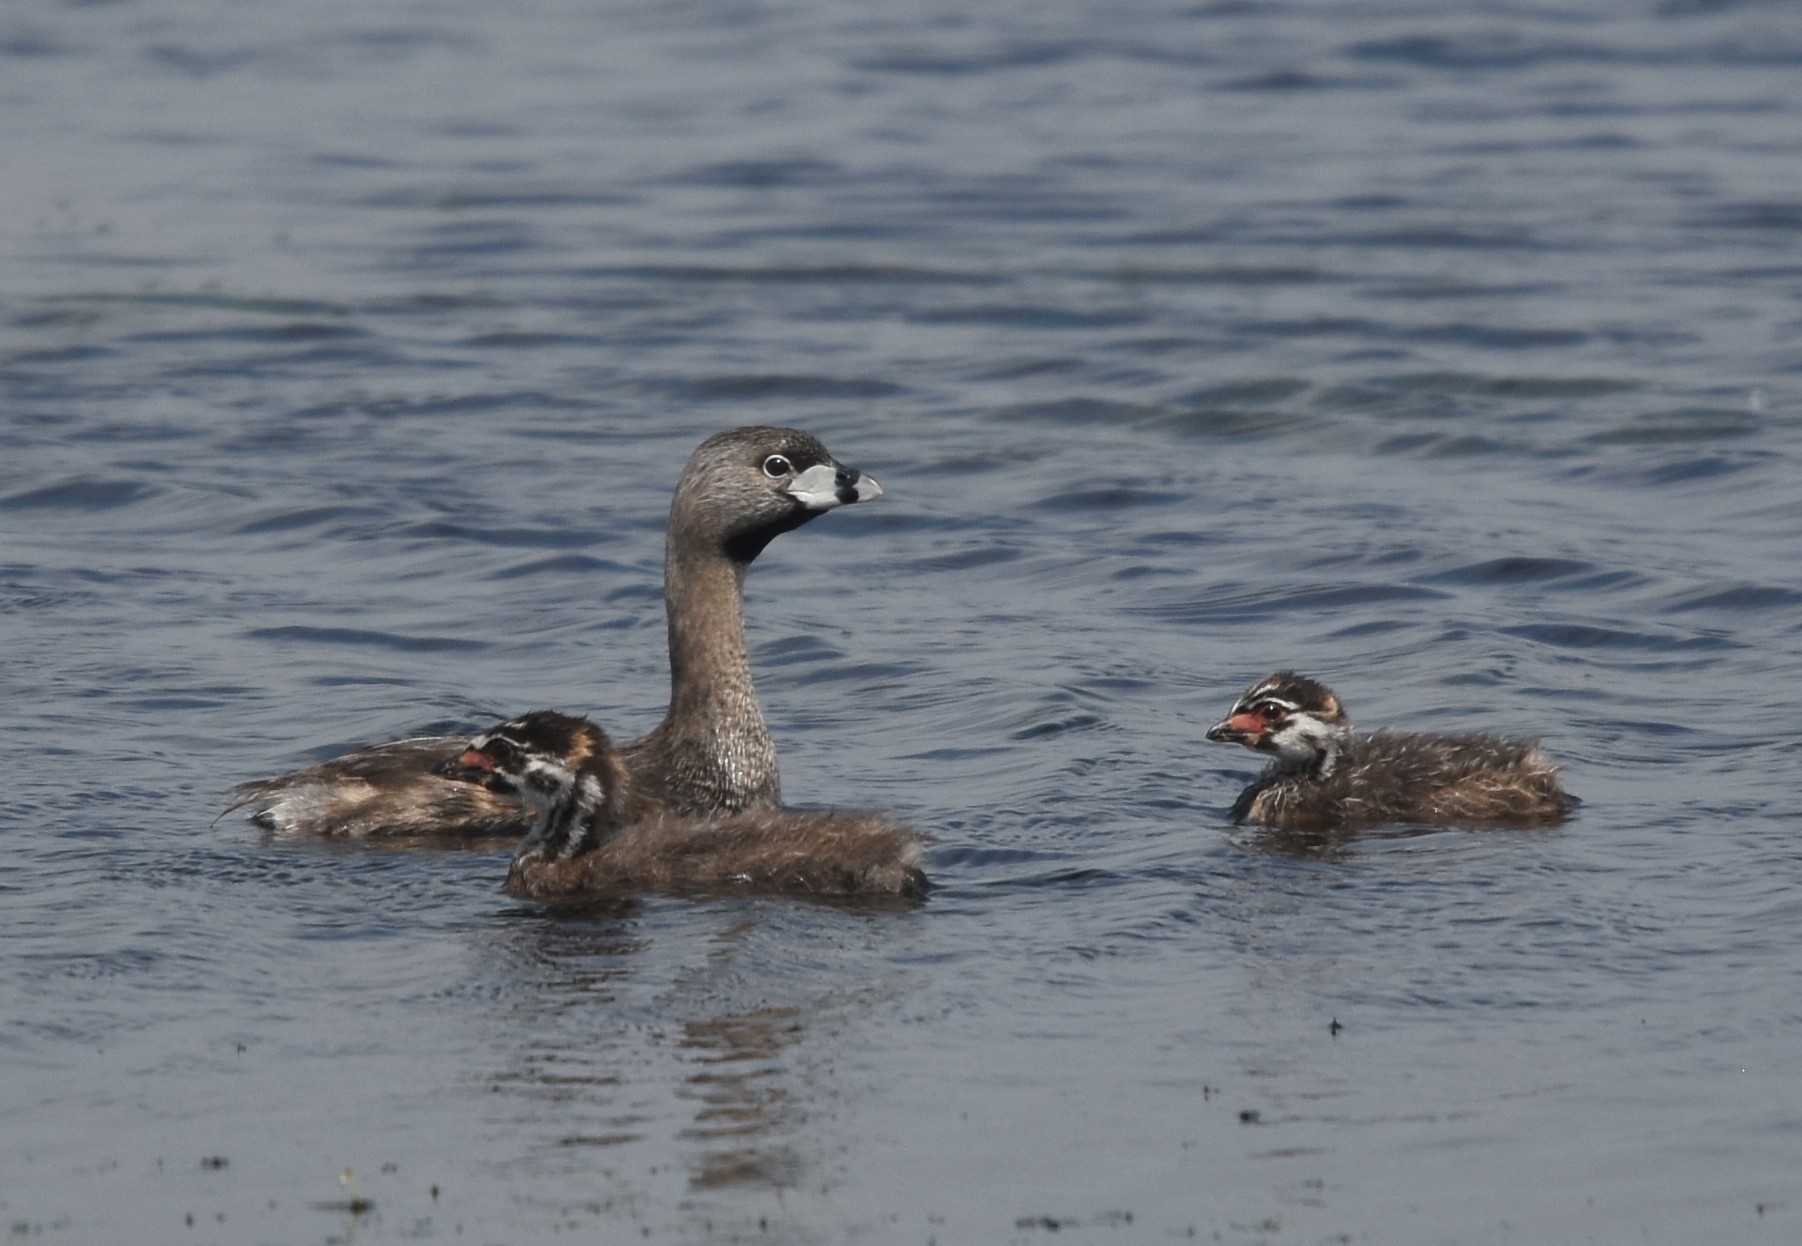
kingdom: Animalia
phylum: Chordata
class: Aves
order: Podicipediformes
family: Podicipedidae
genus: Podilymbus
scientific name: Podilymbus podiceps
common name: Pied-billed grebe
